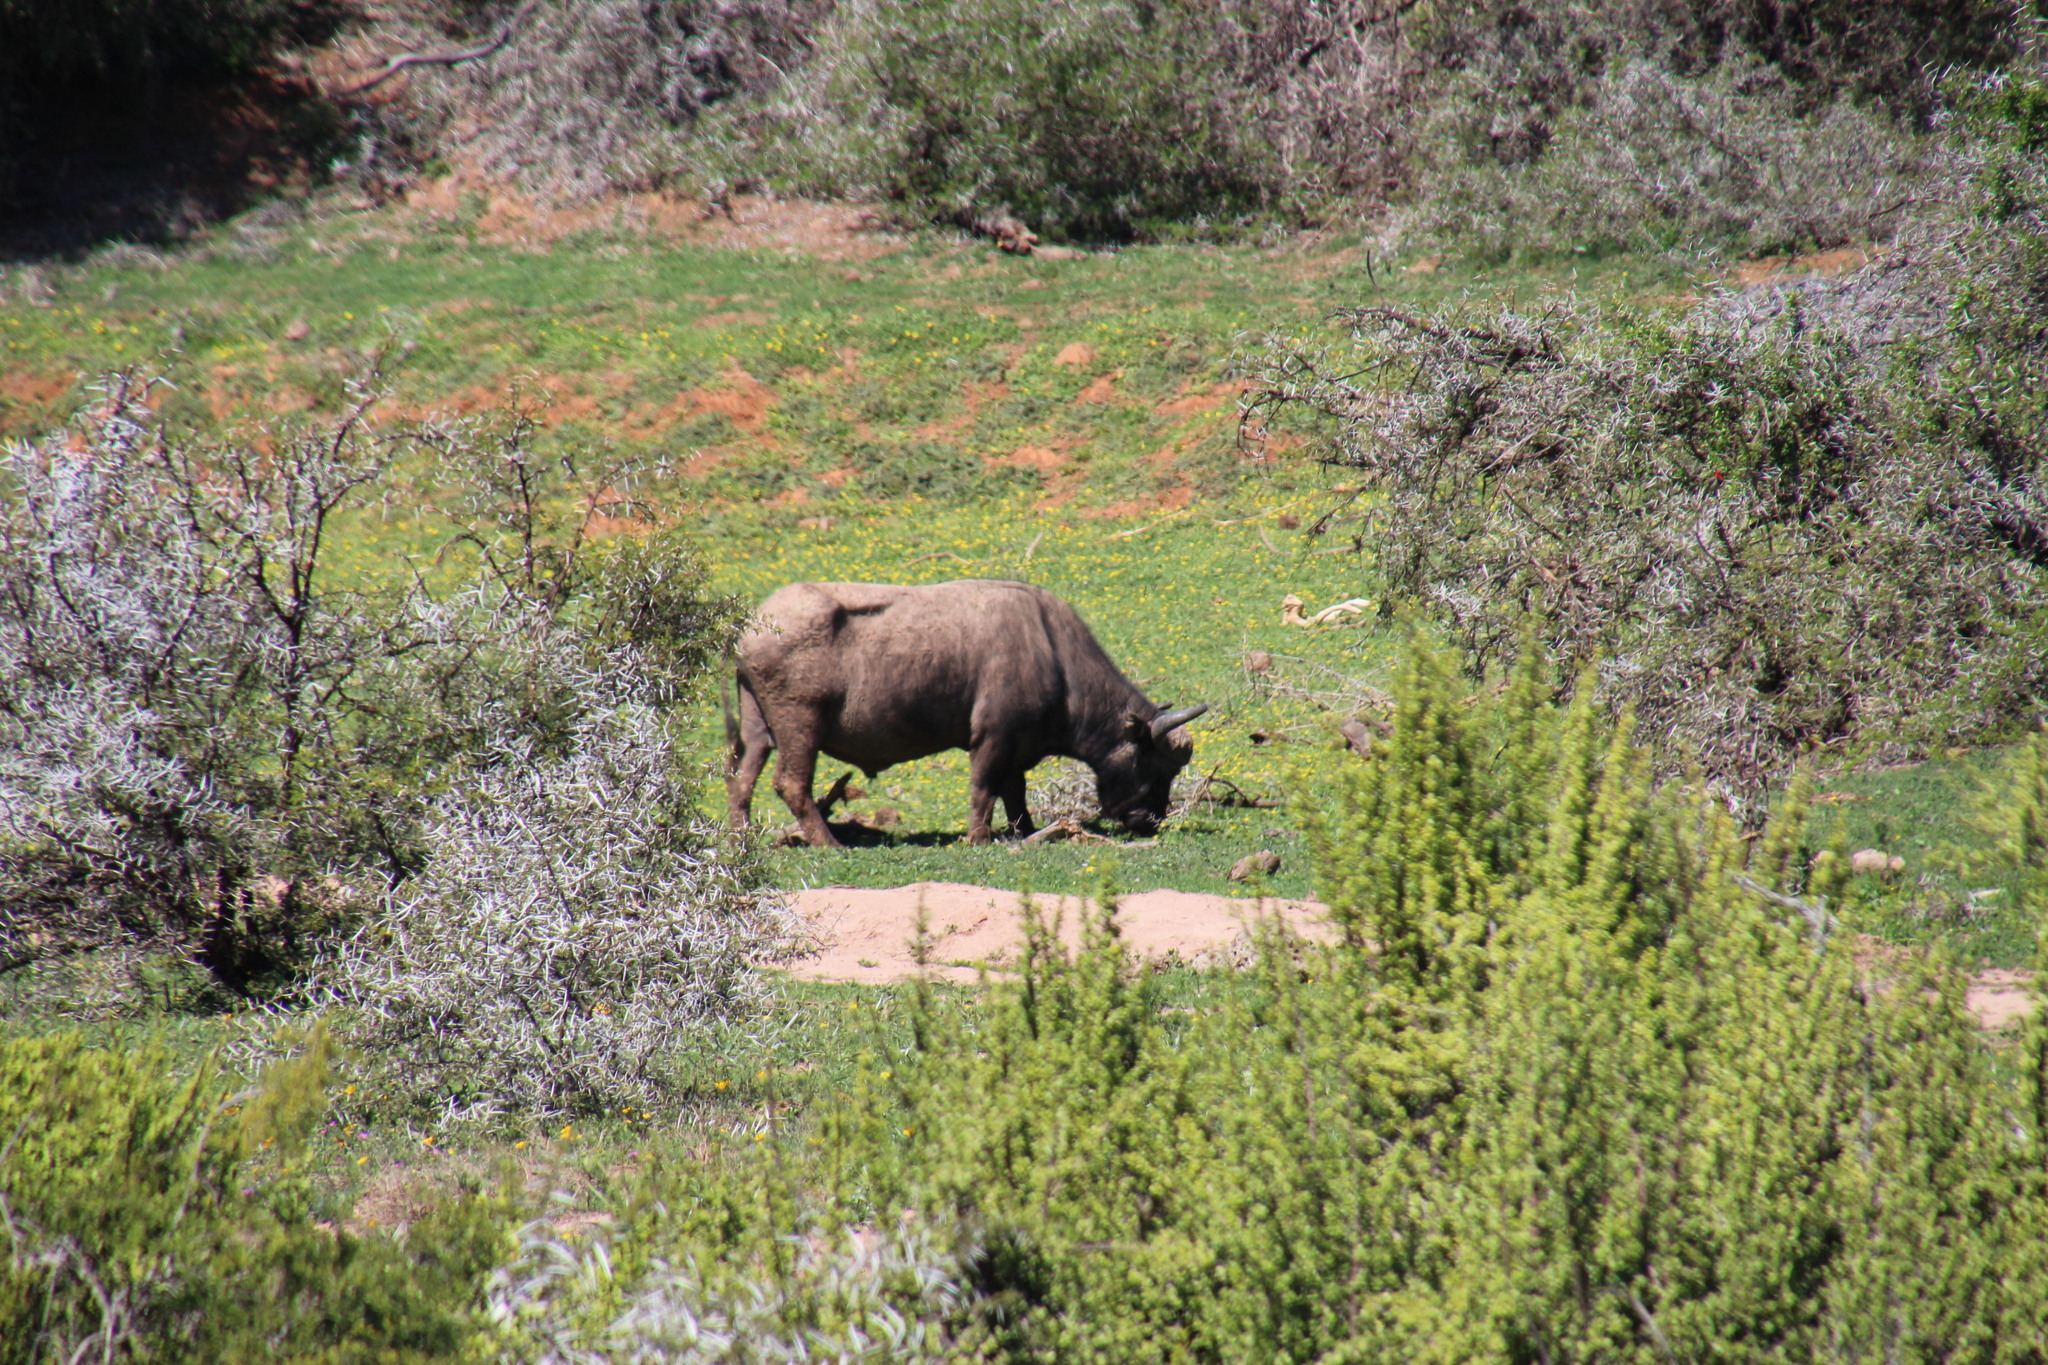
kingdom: Animalia
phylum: Chordata
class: Mammalia
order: Artiodactyla
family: Bovidae
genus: Syncerus
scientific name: Syncerus caffer
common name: African buffalo
